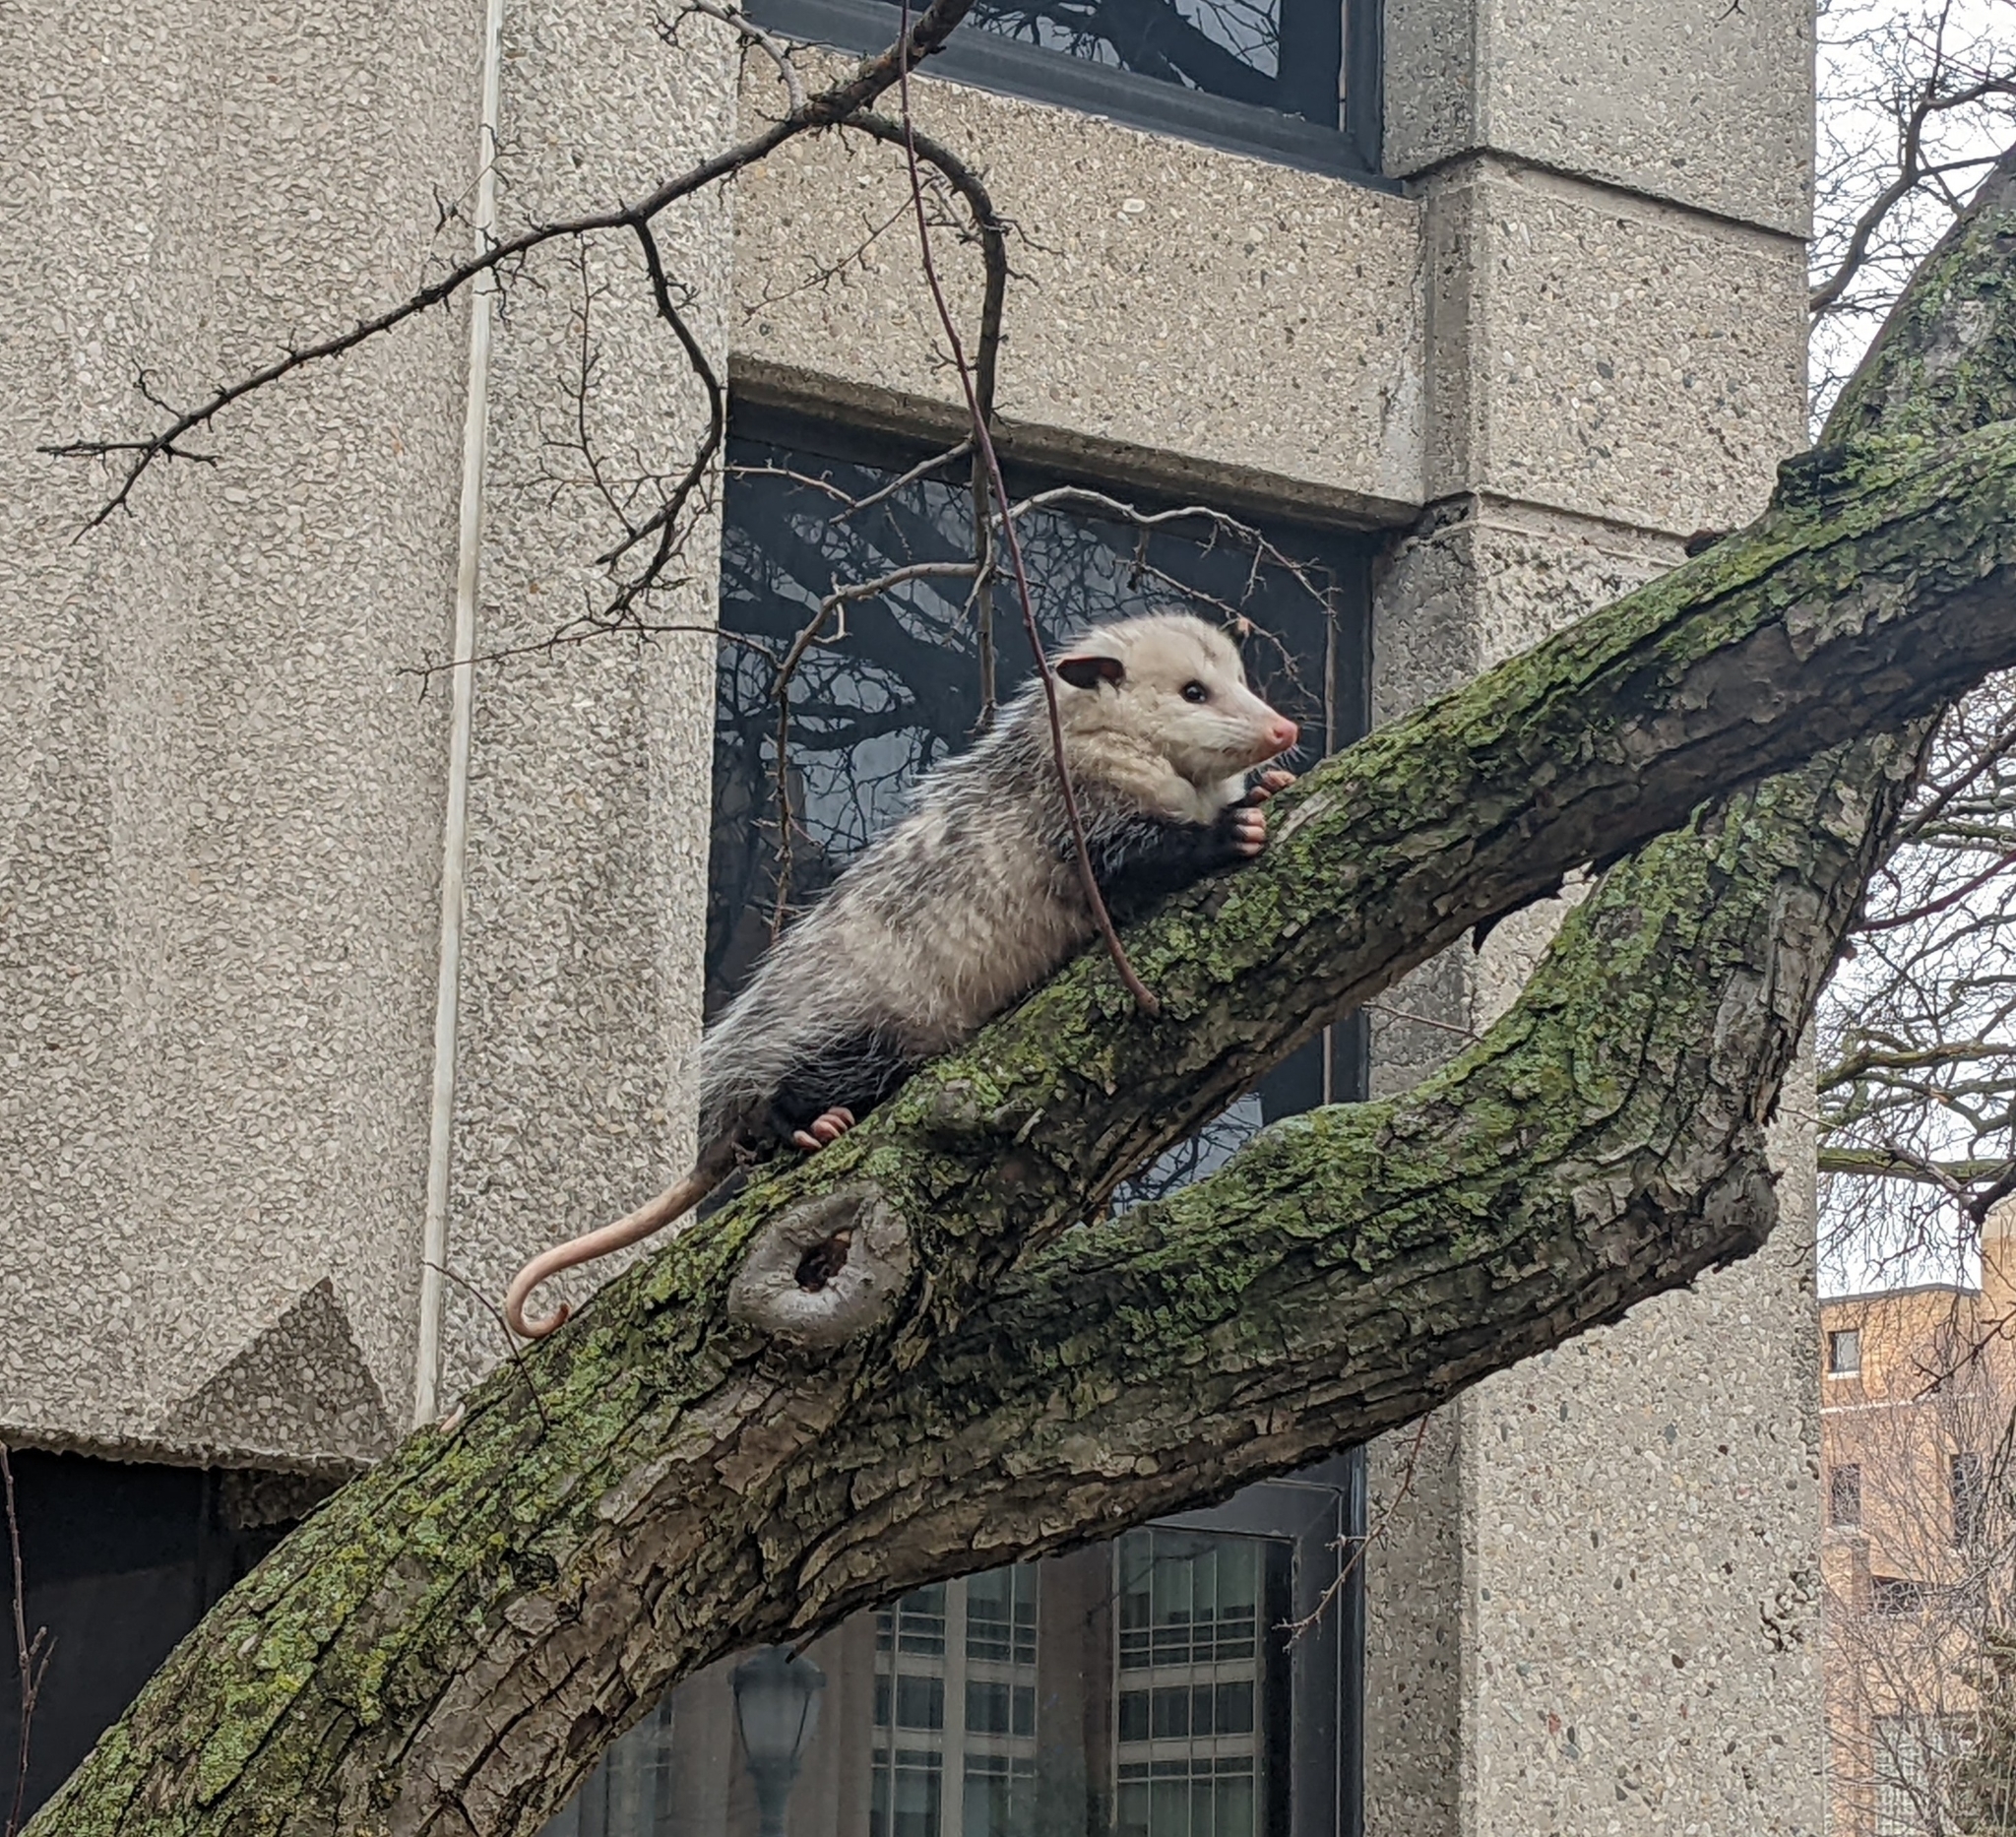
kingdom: Animalia
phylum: Chordata
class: Mammalia
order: Didelphimorphia
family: Didelphidae
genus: Didelphis
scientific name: Didelphis virginiana
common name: Virginia opossum
